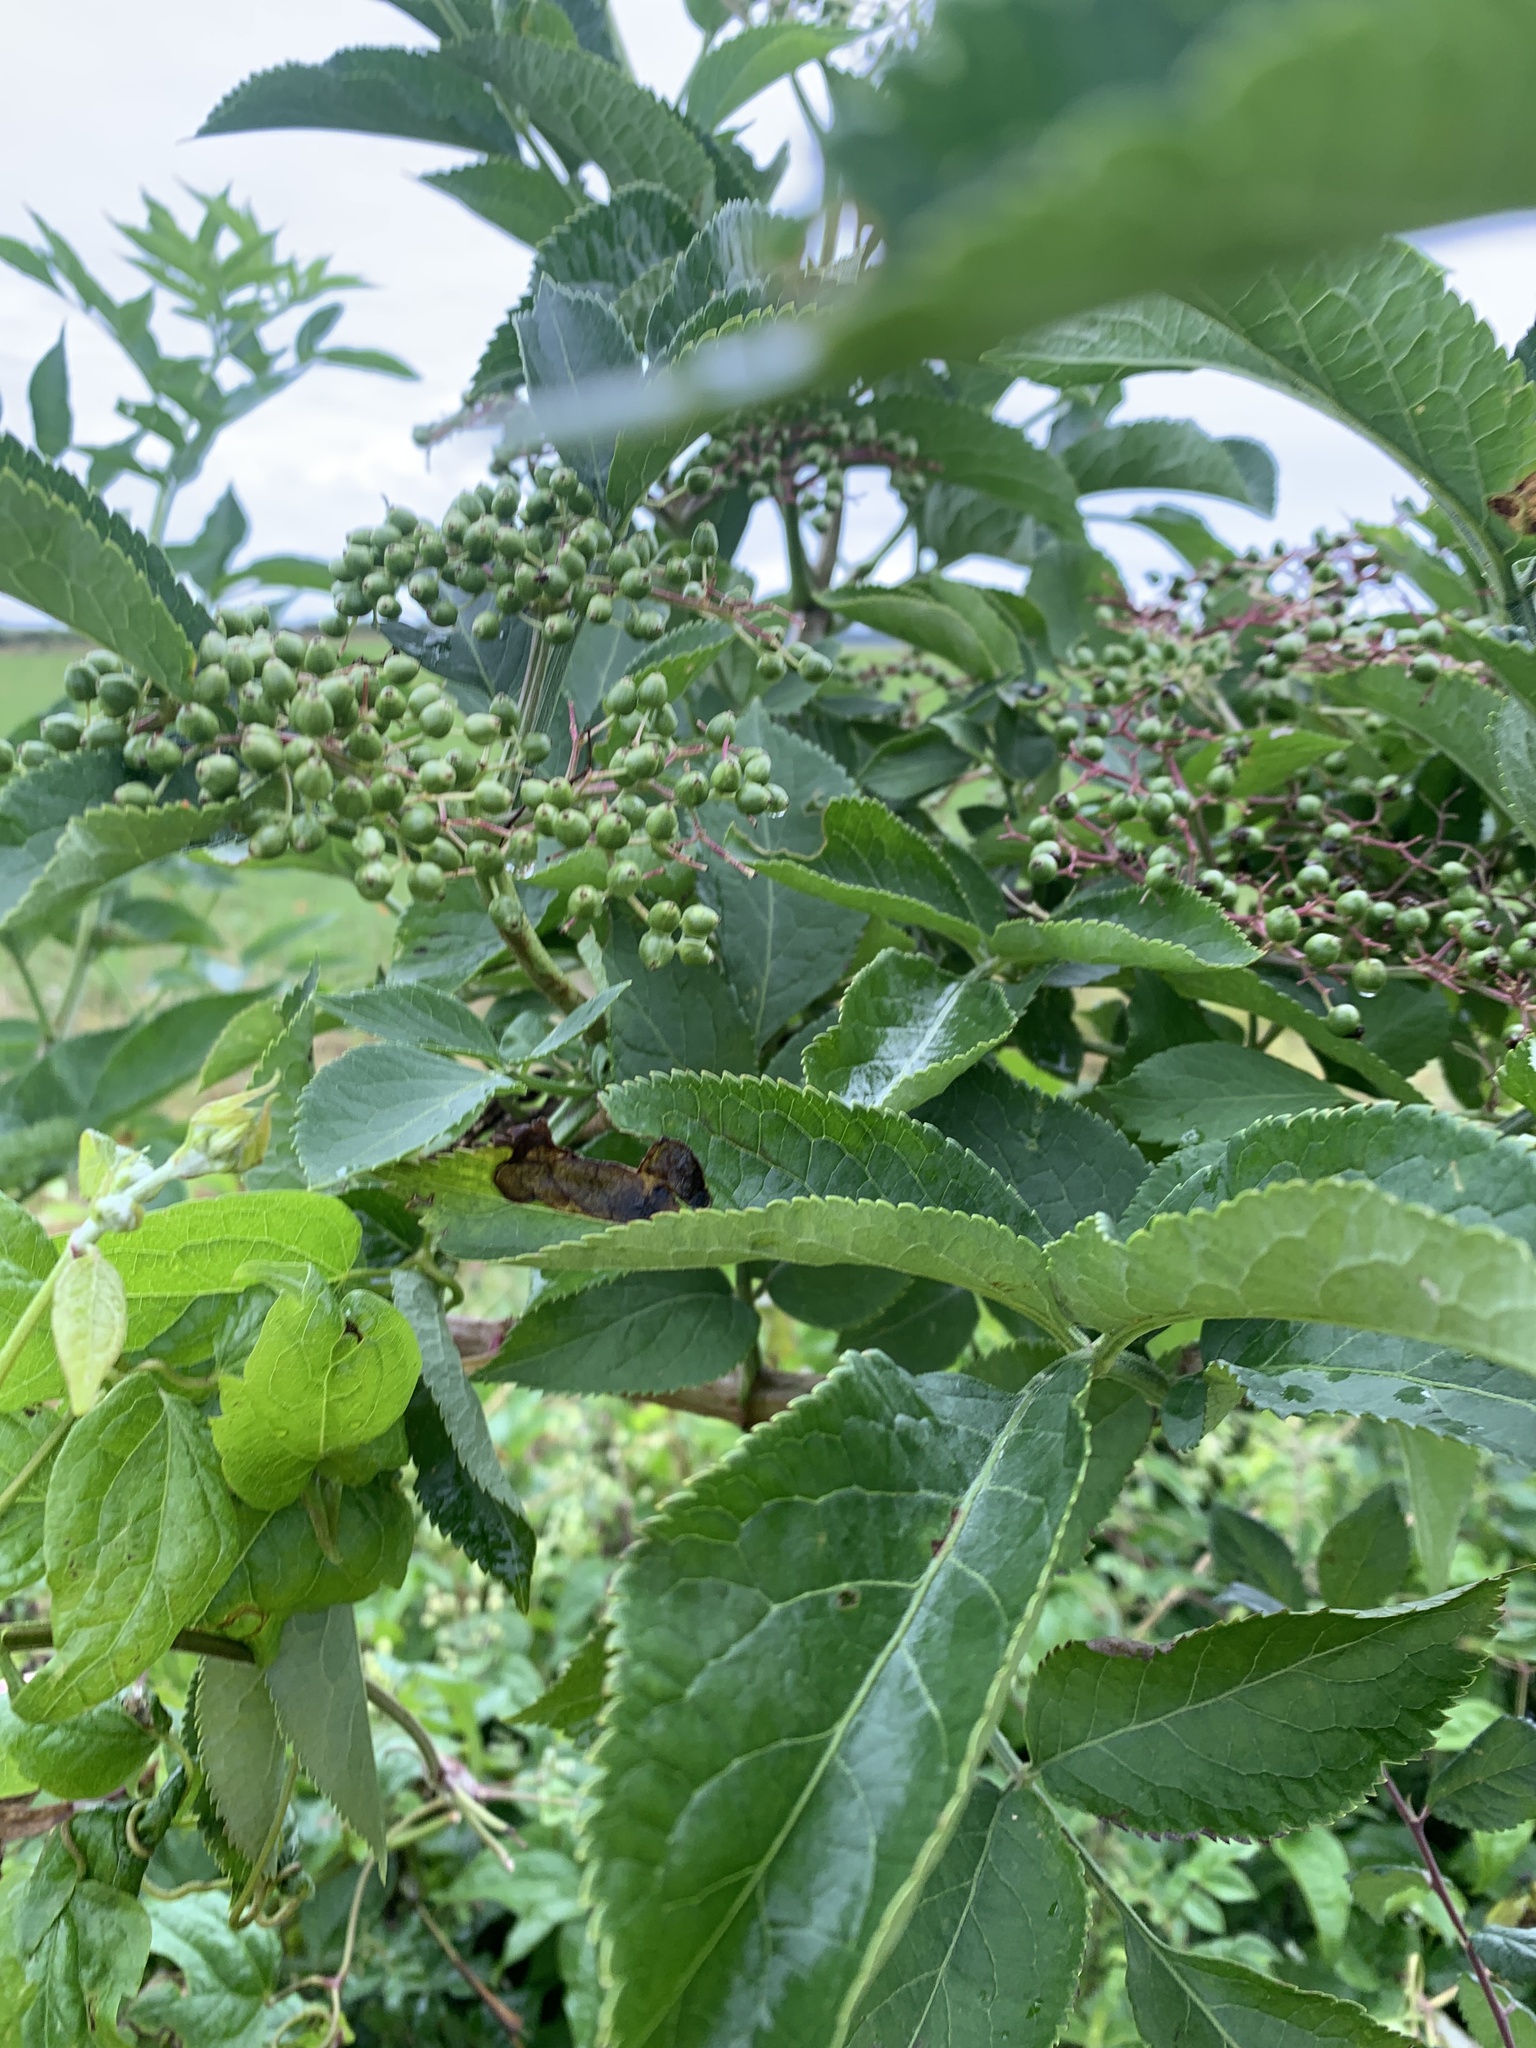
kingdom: Plantae
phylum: Tracheophyta
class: Magnoliopsida
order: Dipsacales
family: Viburnaceae
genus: Sambucus
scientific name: Sambucus nigra
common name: Elder
